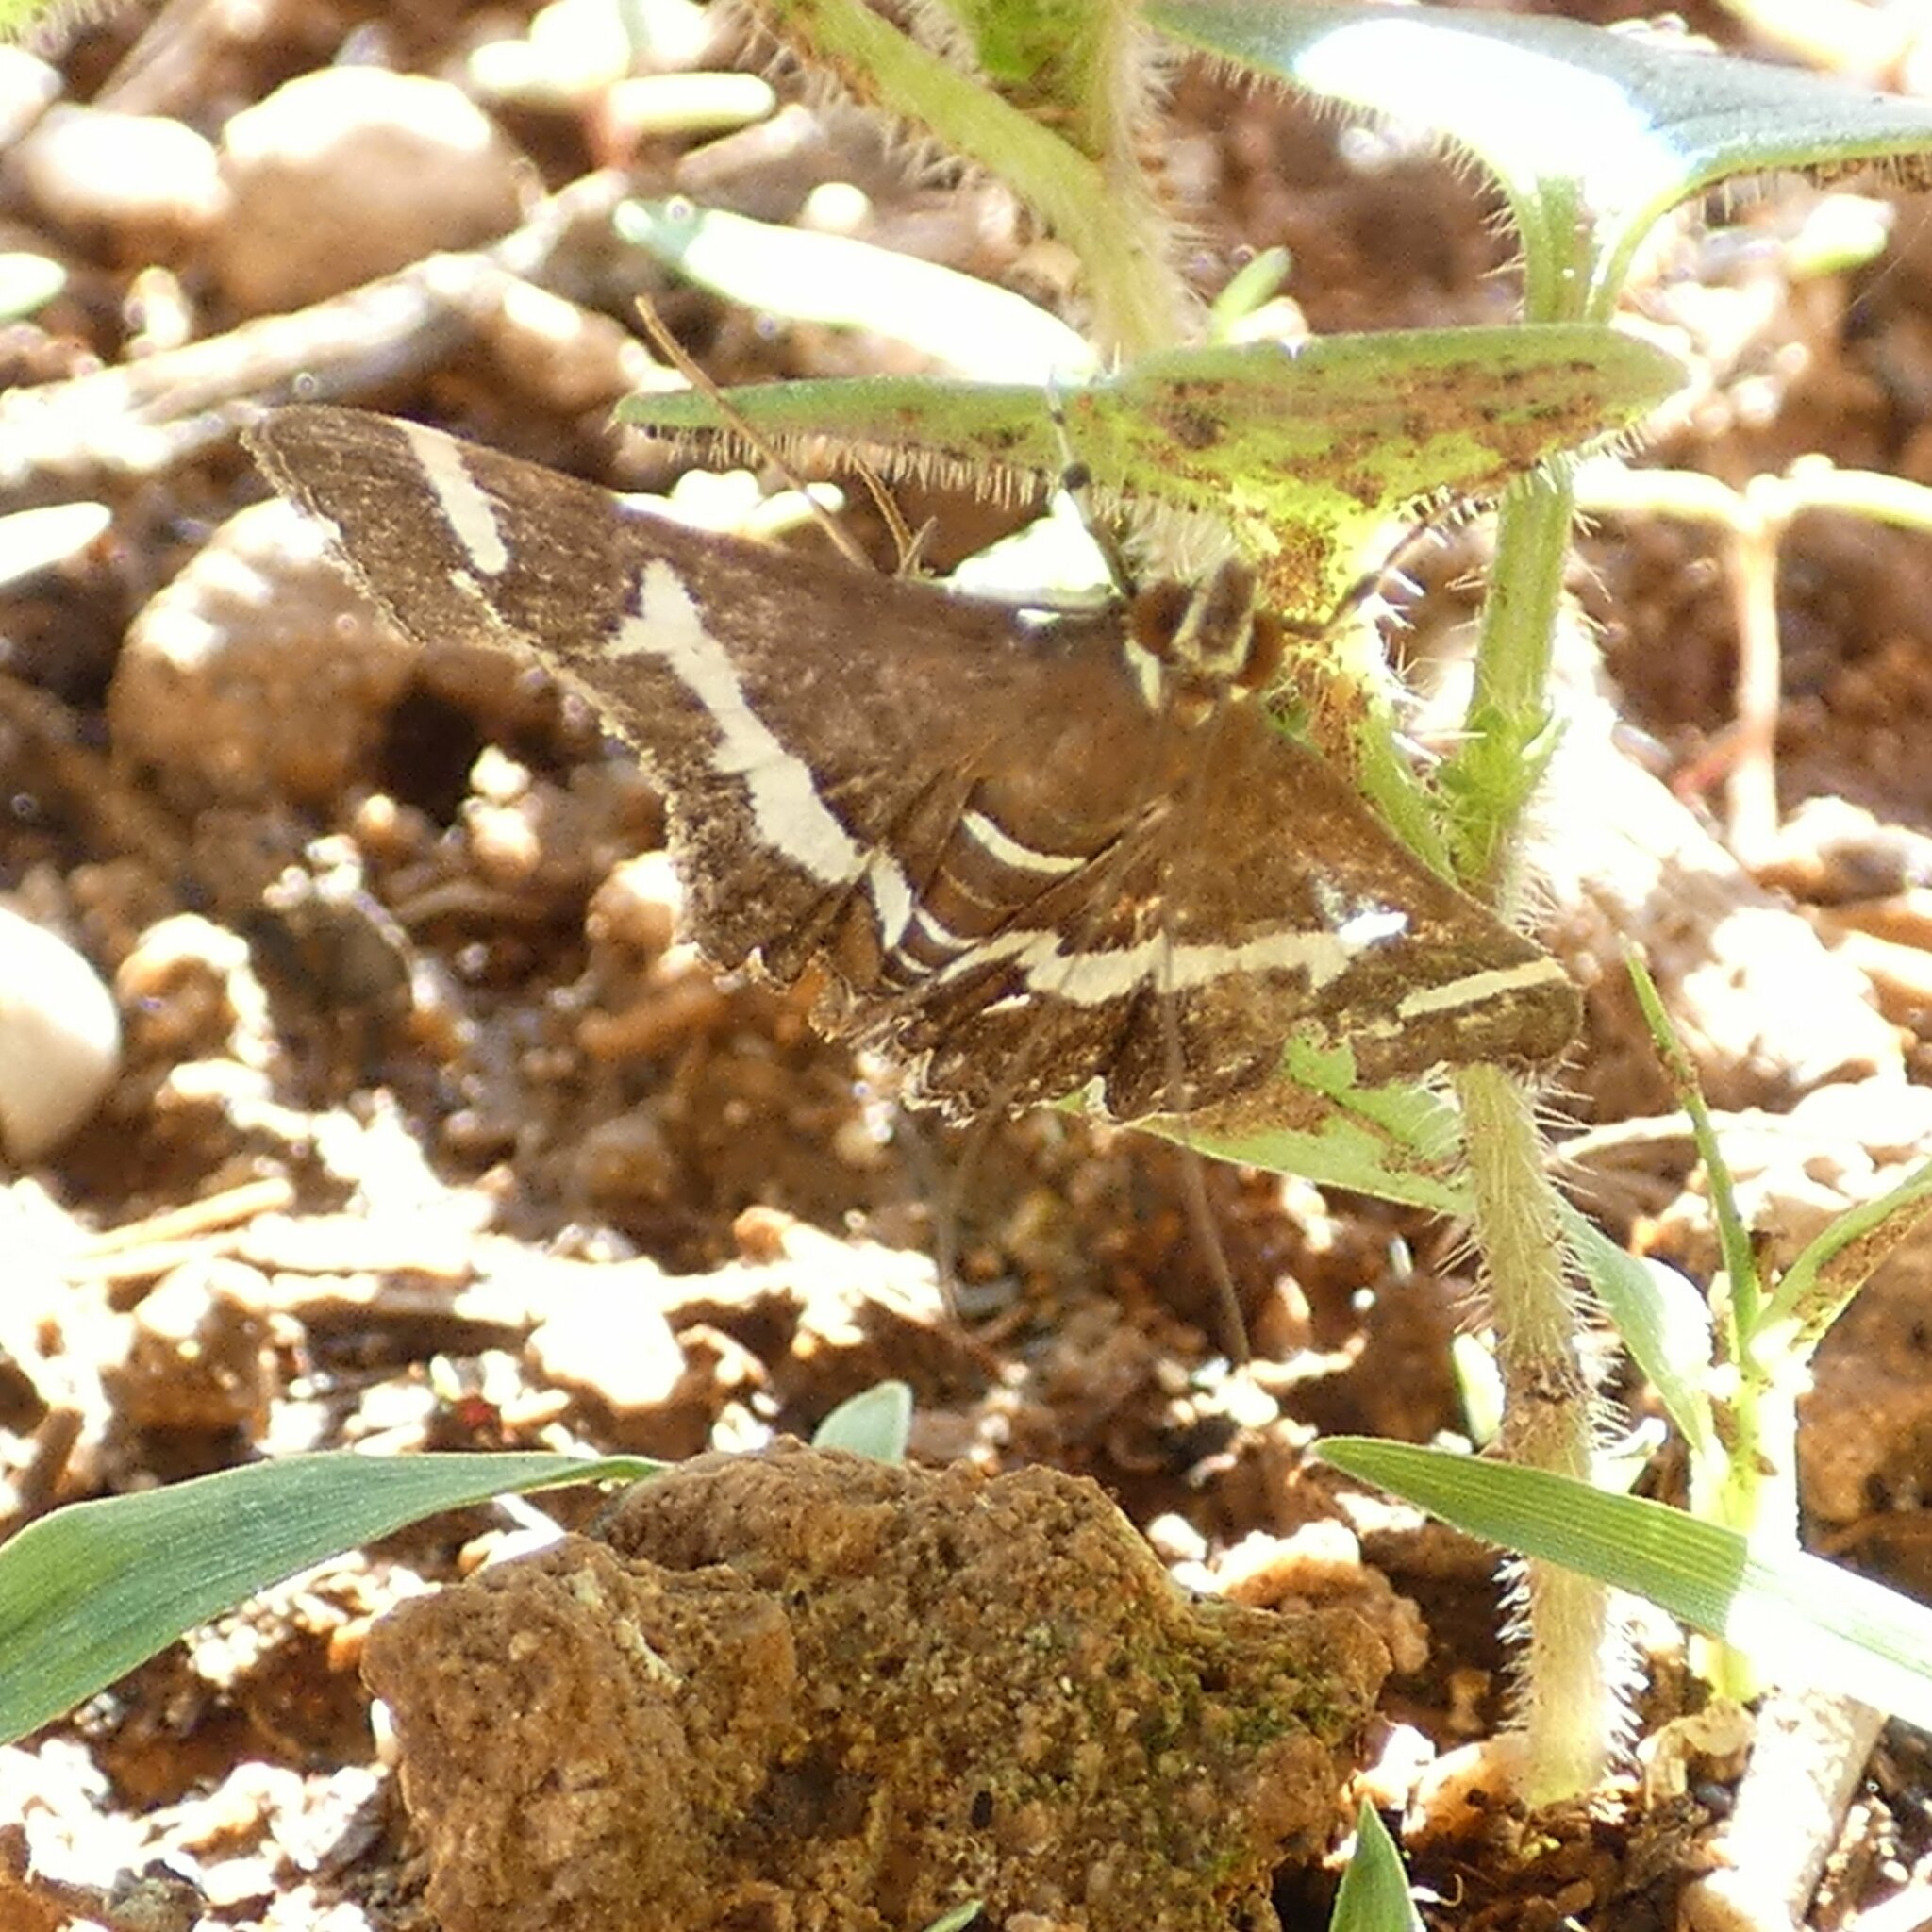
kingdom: Animalia
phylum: Arthropoda
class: Insecta
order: Lepidoptera
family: Crambidae
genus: Spoladea
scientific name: Spoladea recurvalis
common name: Beet webworm moth
